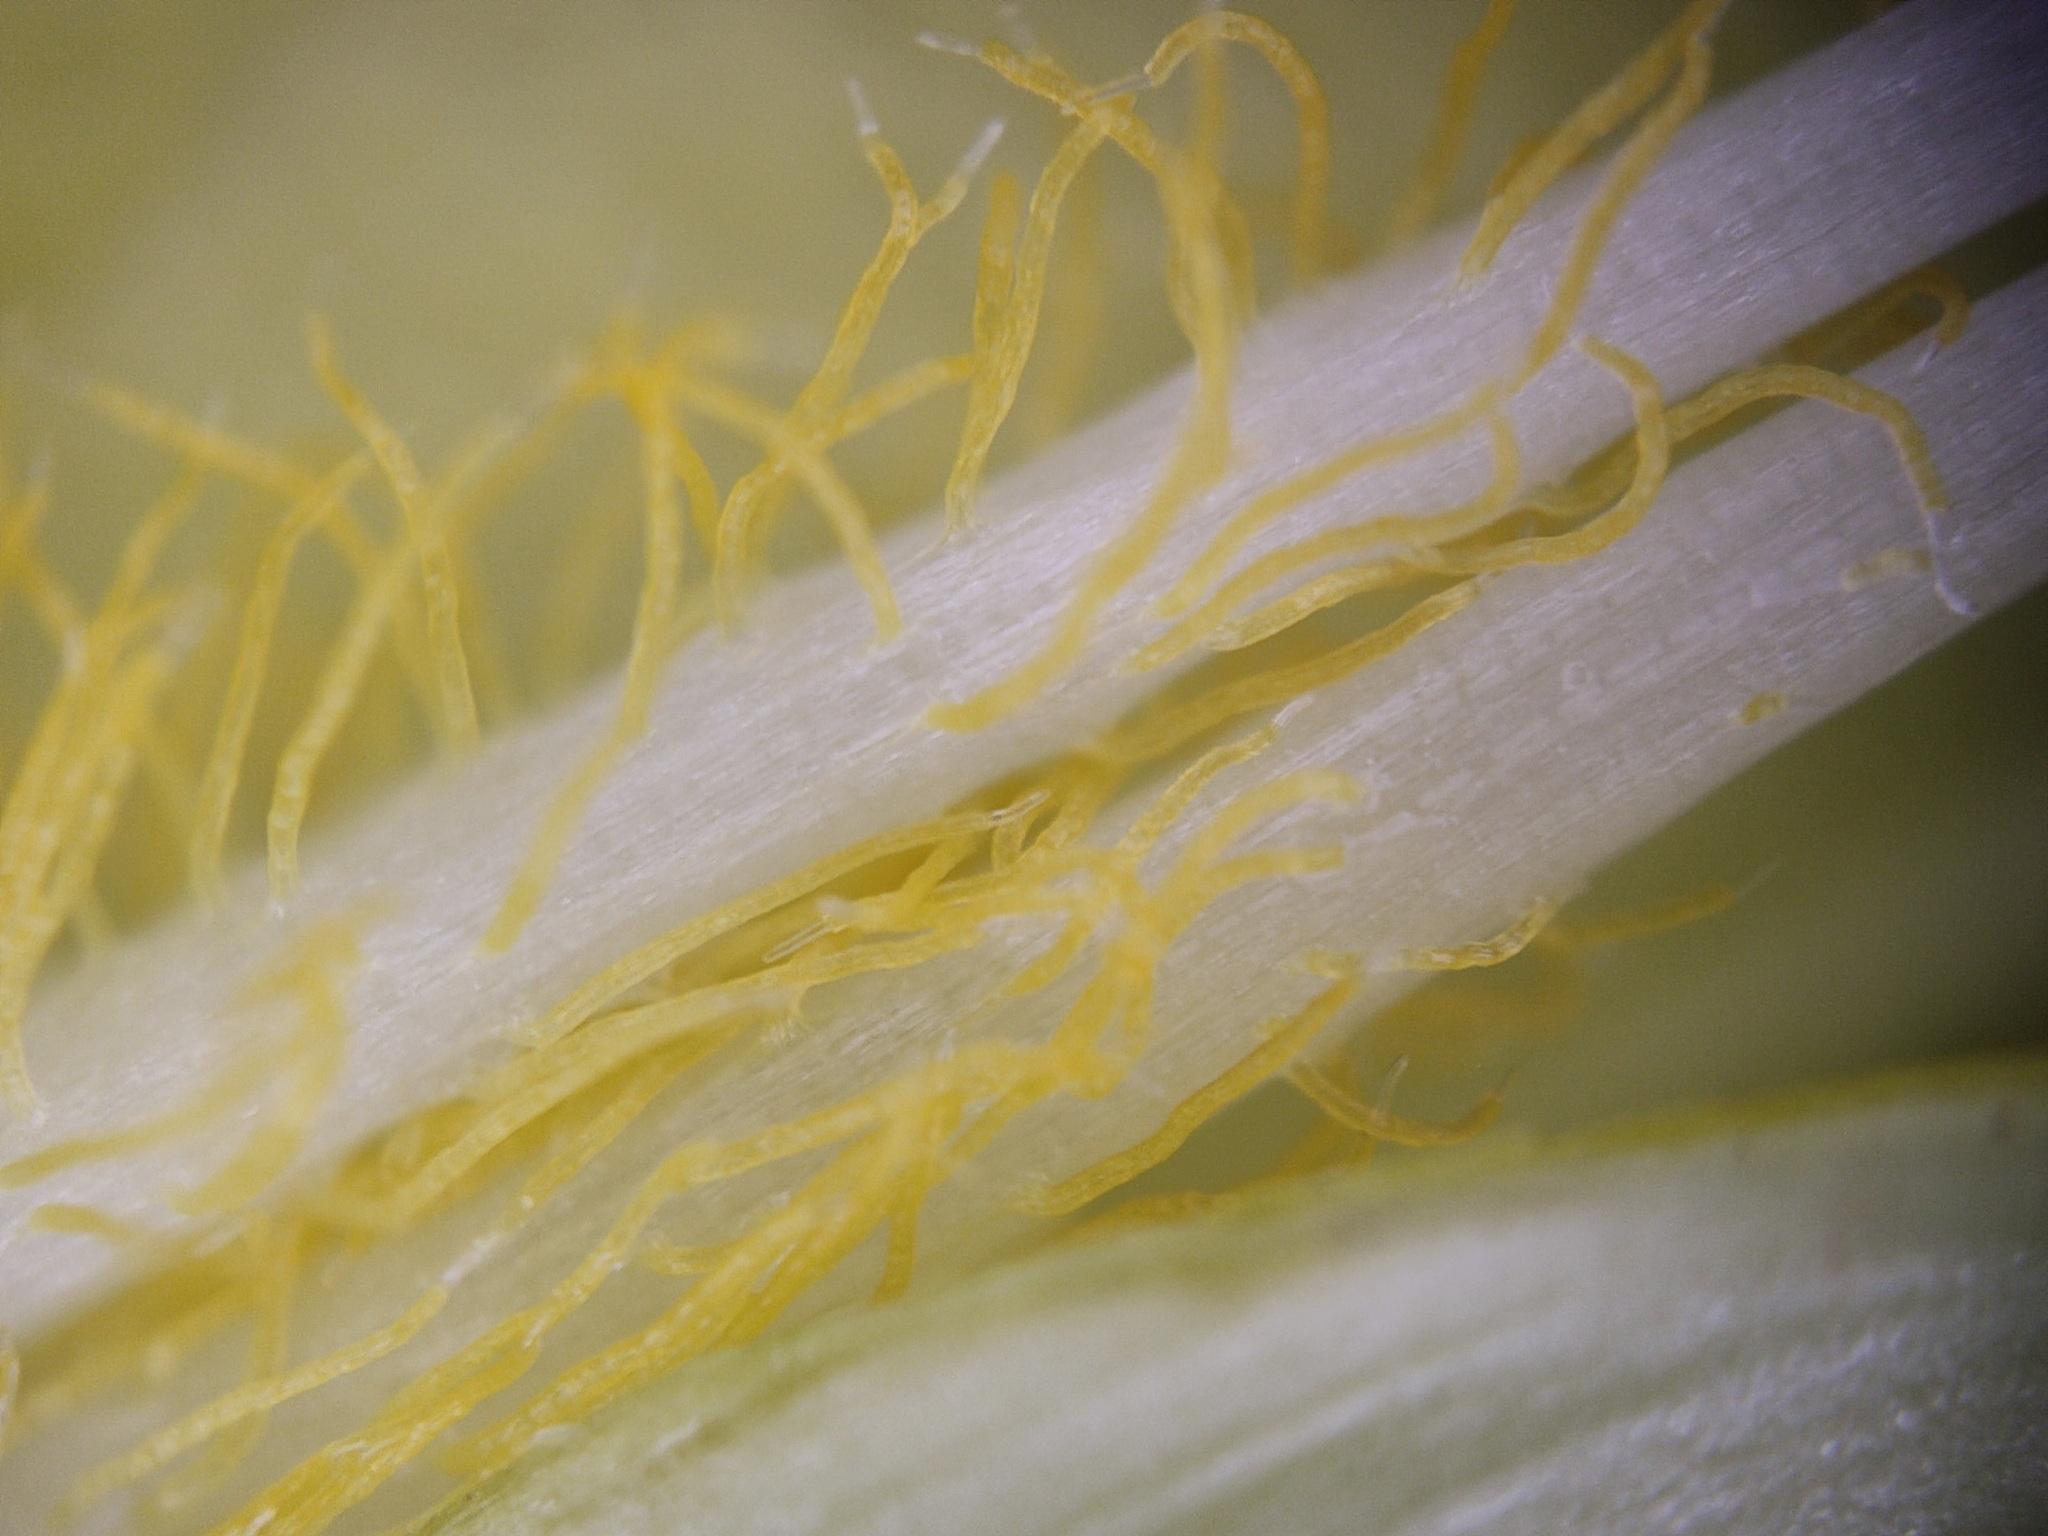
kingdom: Plantae
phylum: Tracheophyta
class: Magnoliopsida
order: Solanales
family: Convolvulaceae
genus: Ipomoea
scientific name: Ipomoea tricolor
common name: Morning-glory
